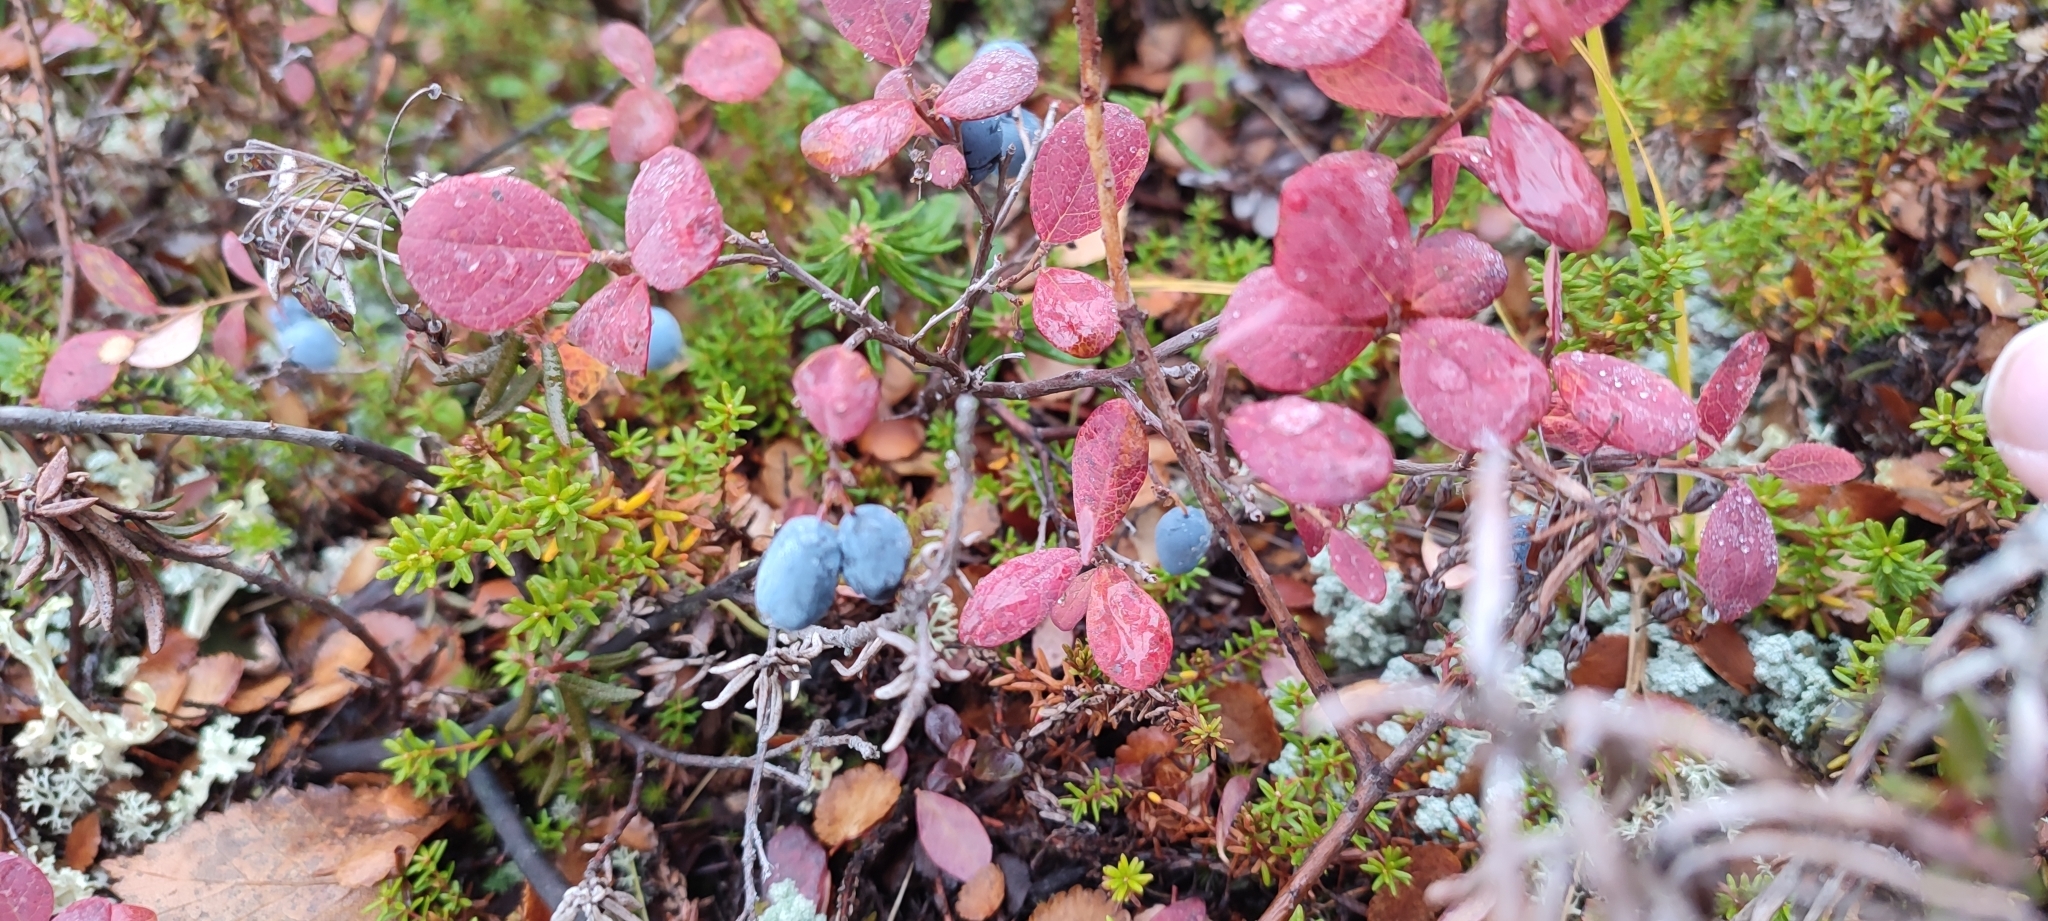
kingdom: Plantae
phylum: Tracheophyta
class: Magnoliopsida
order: Ericales
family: Ericaceae
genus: Vaccinium
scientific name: Vaccinium uliginosum
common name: Bog bilberry
